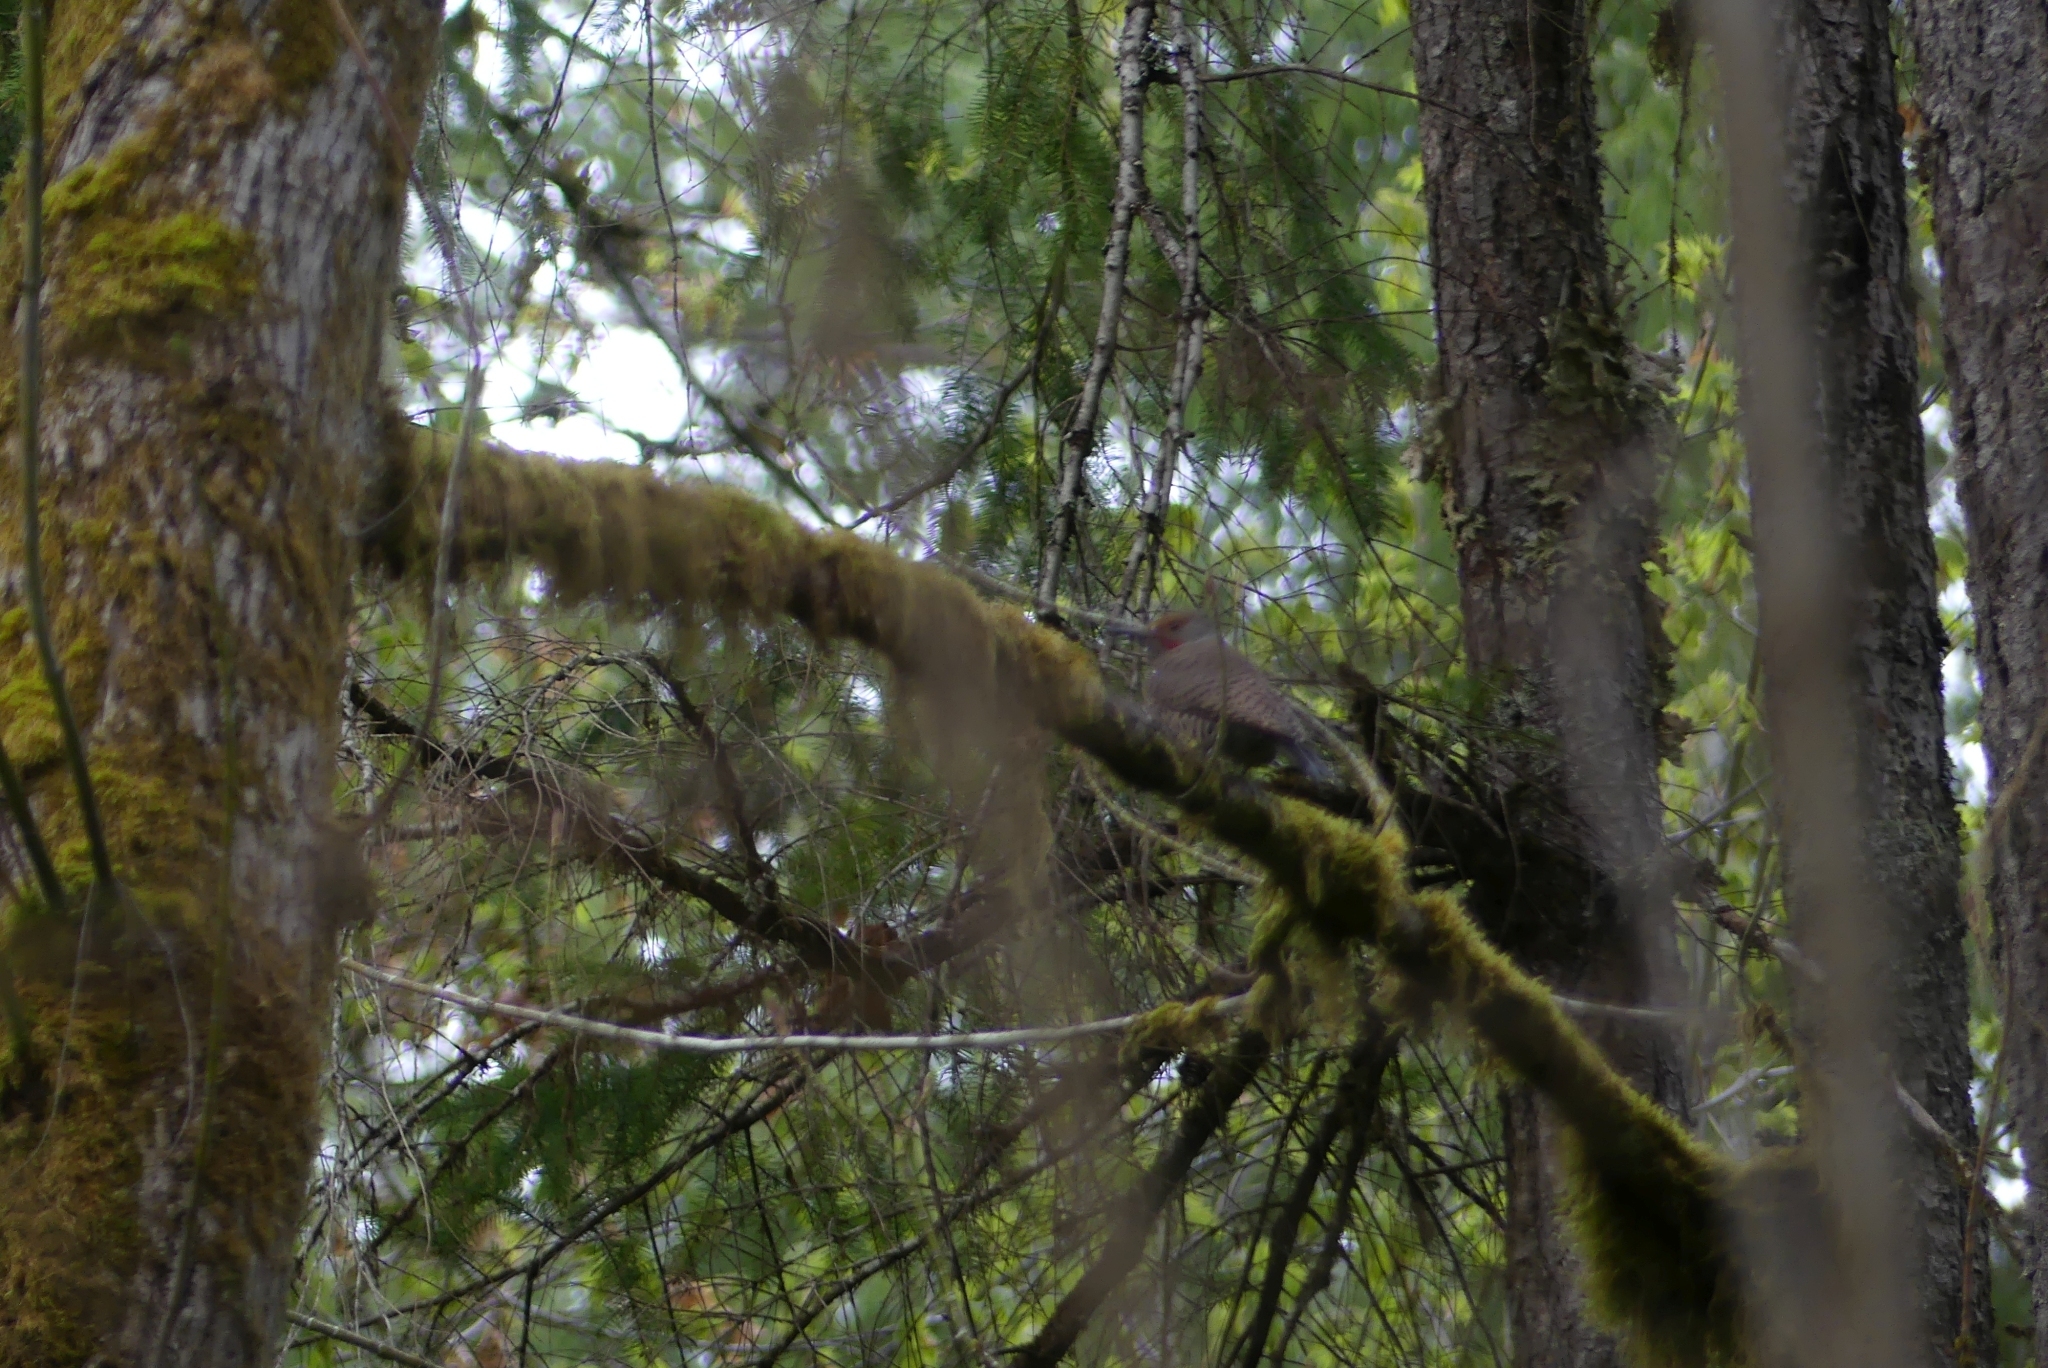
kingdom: Animalia
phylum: Chordata
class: Aves
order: Piciformes
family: Picidae
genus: Colaptes
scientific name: Colaptes auratus
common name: Northern flicker
